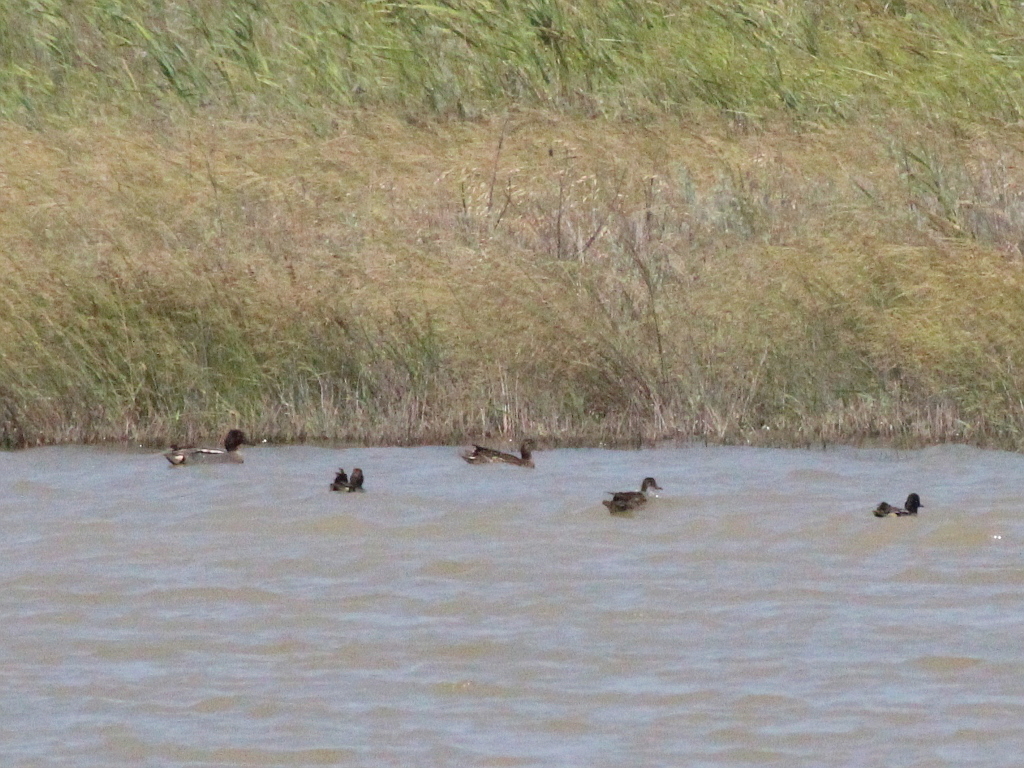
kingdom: Animalia
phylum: Chordata
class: Aves
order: Anseriformes
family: Anatidae
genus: Anas
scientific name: Anas crecca
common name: Eurasian teal
